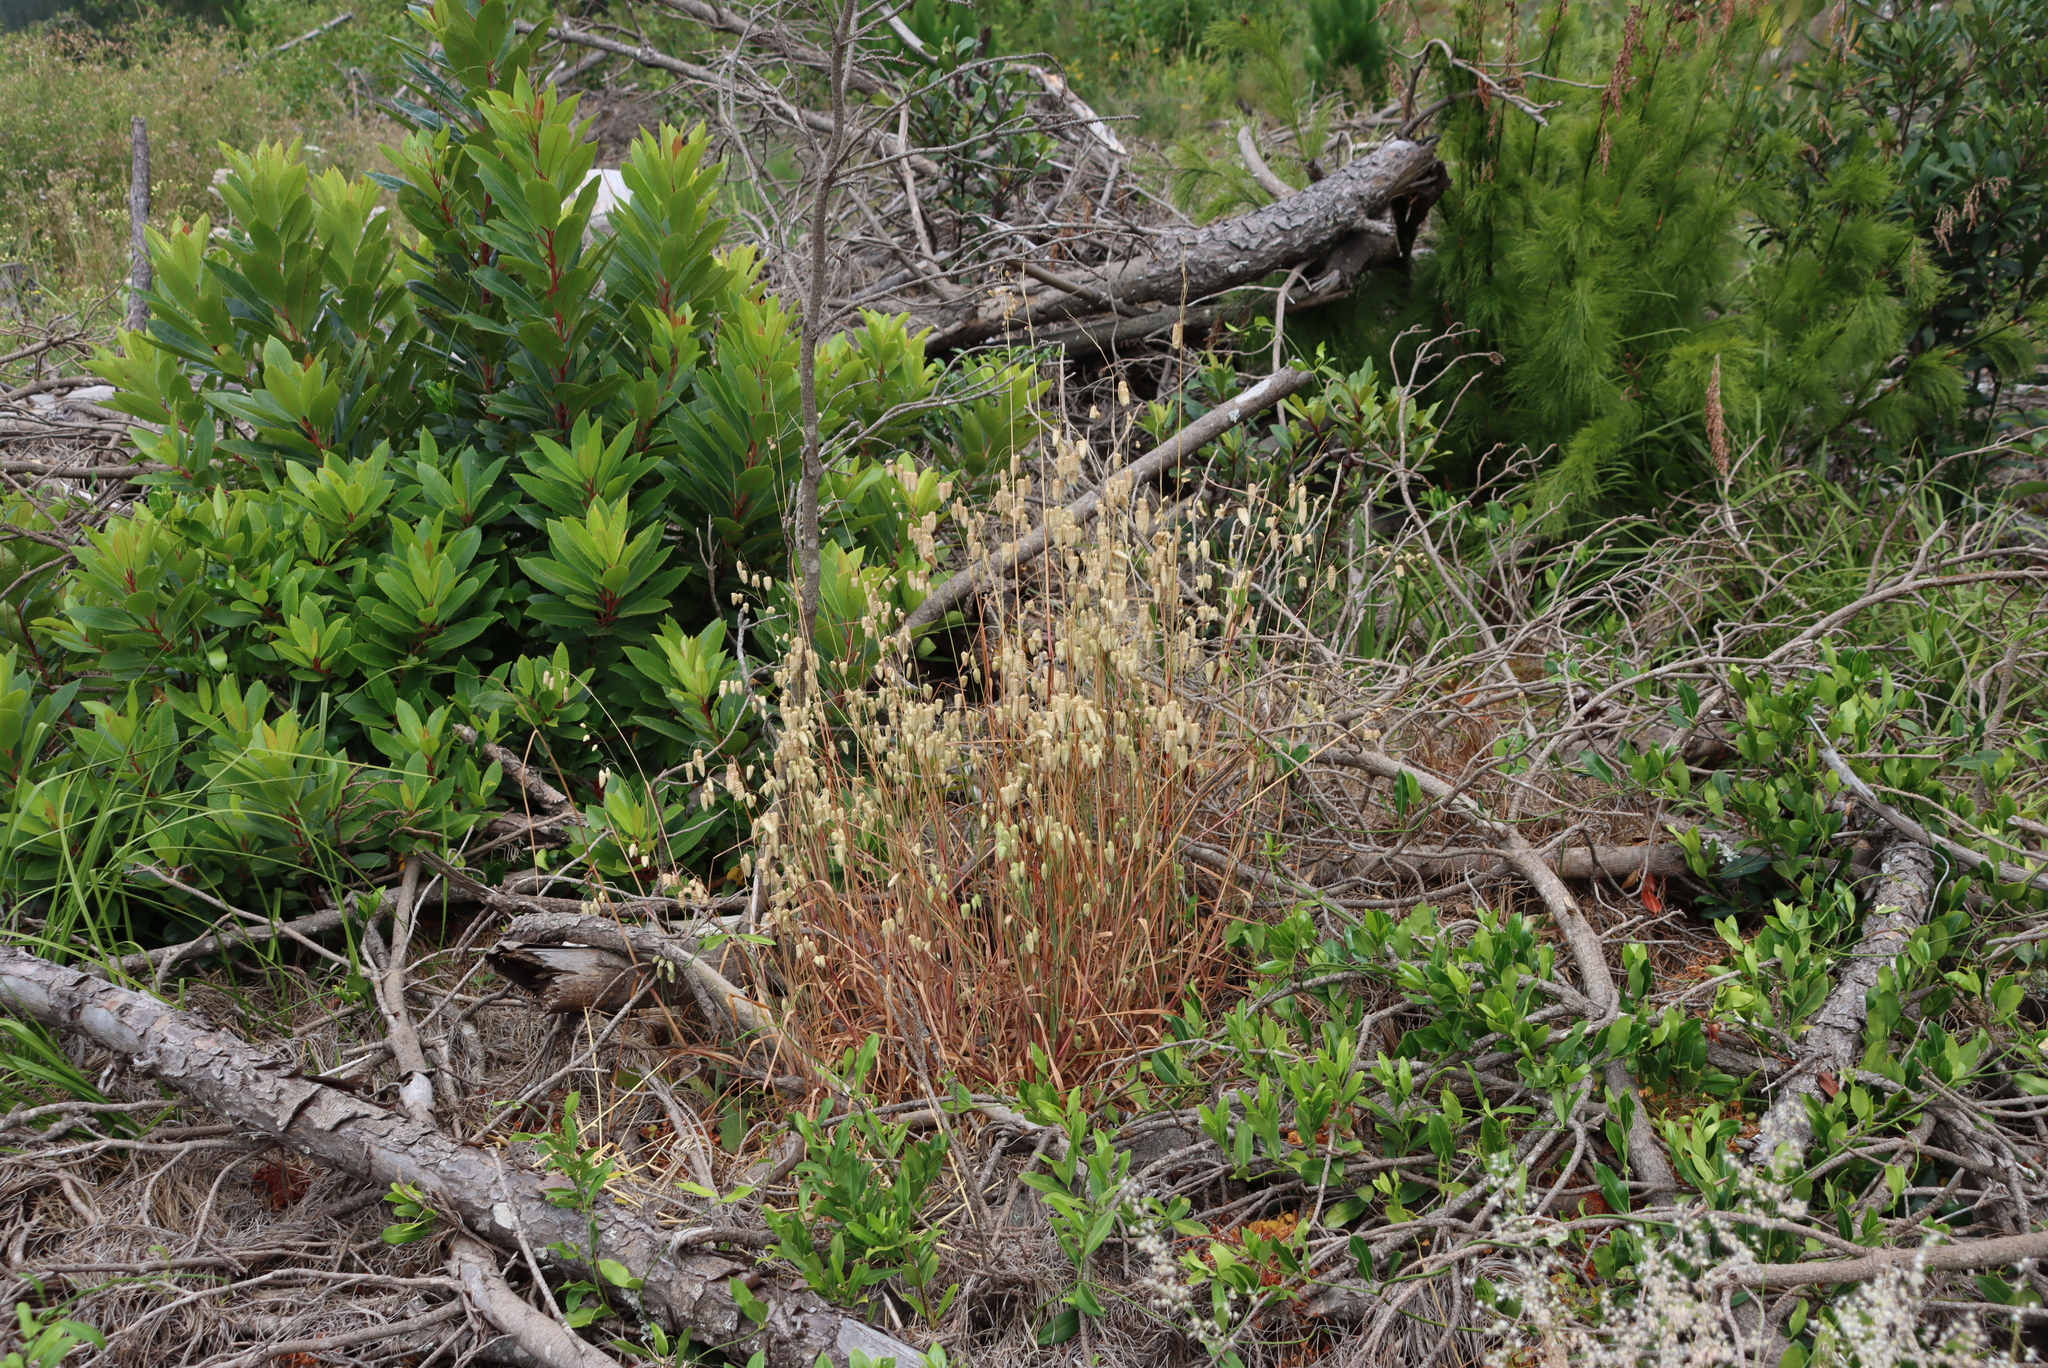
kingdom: Plantae
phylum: Tracheophyta
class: Liliopsida
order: Poales
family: Poaceae
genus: Briza
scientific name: Briza maxima
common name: Big quakinggrass
